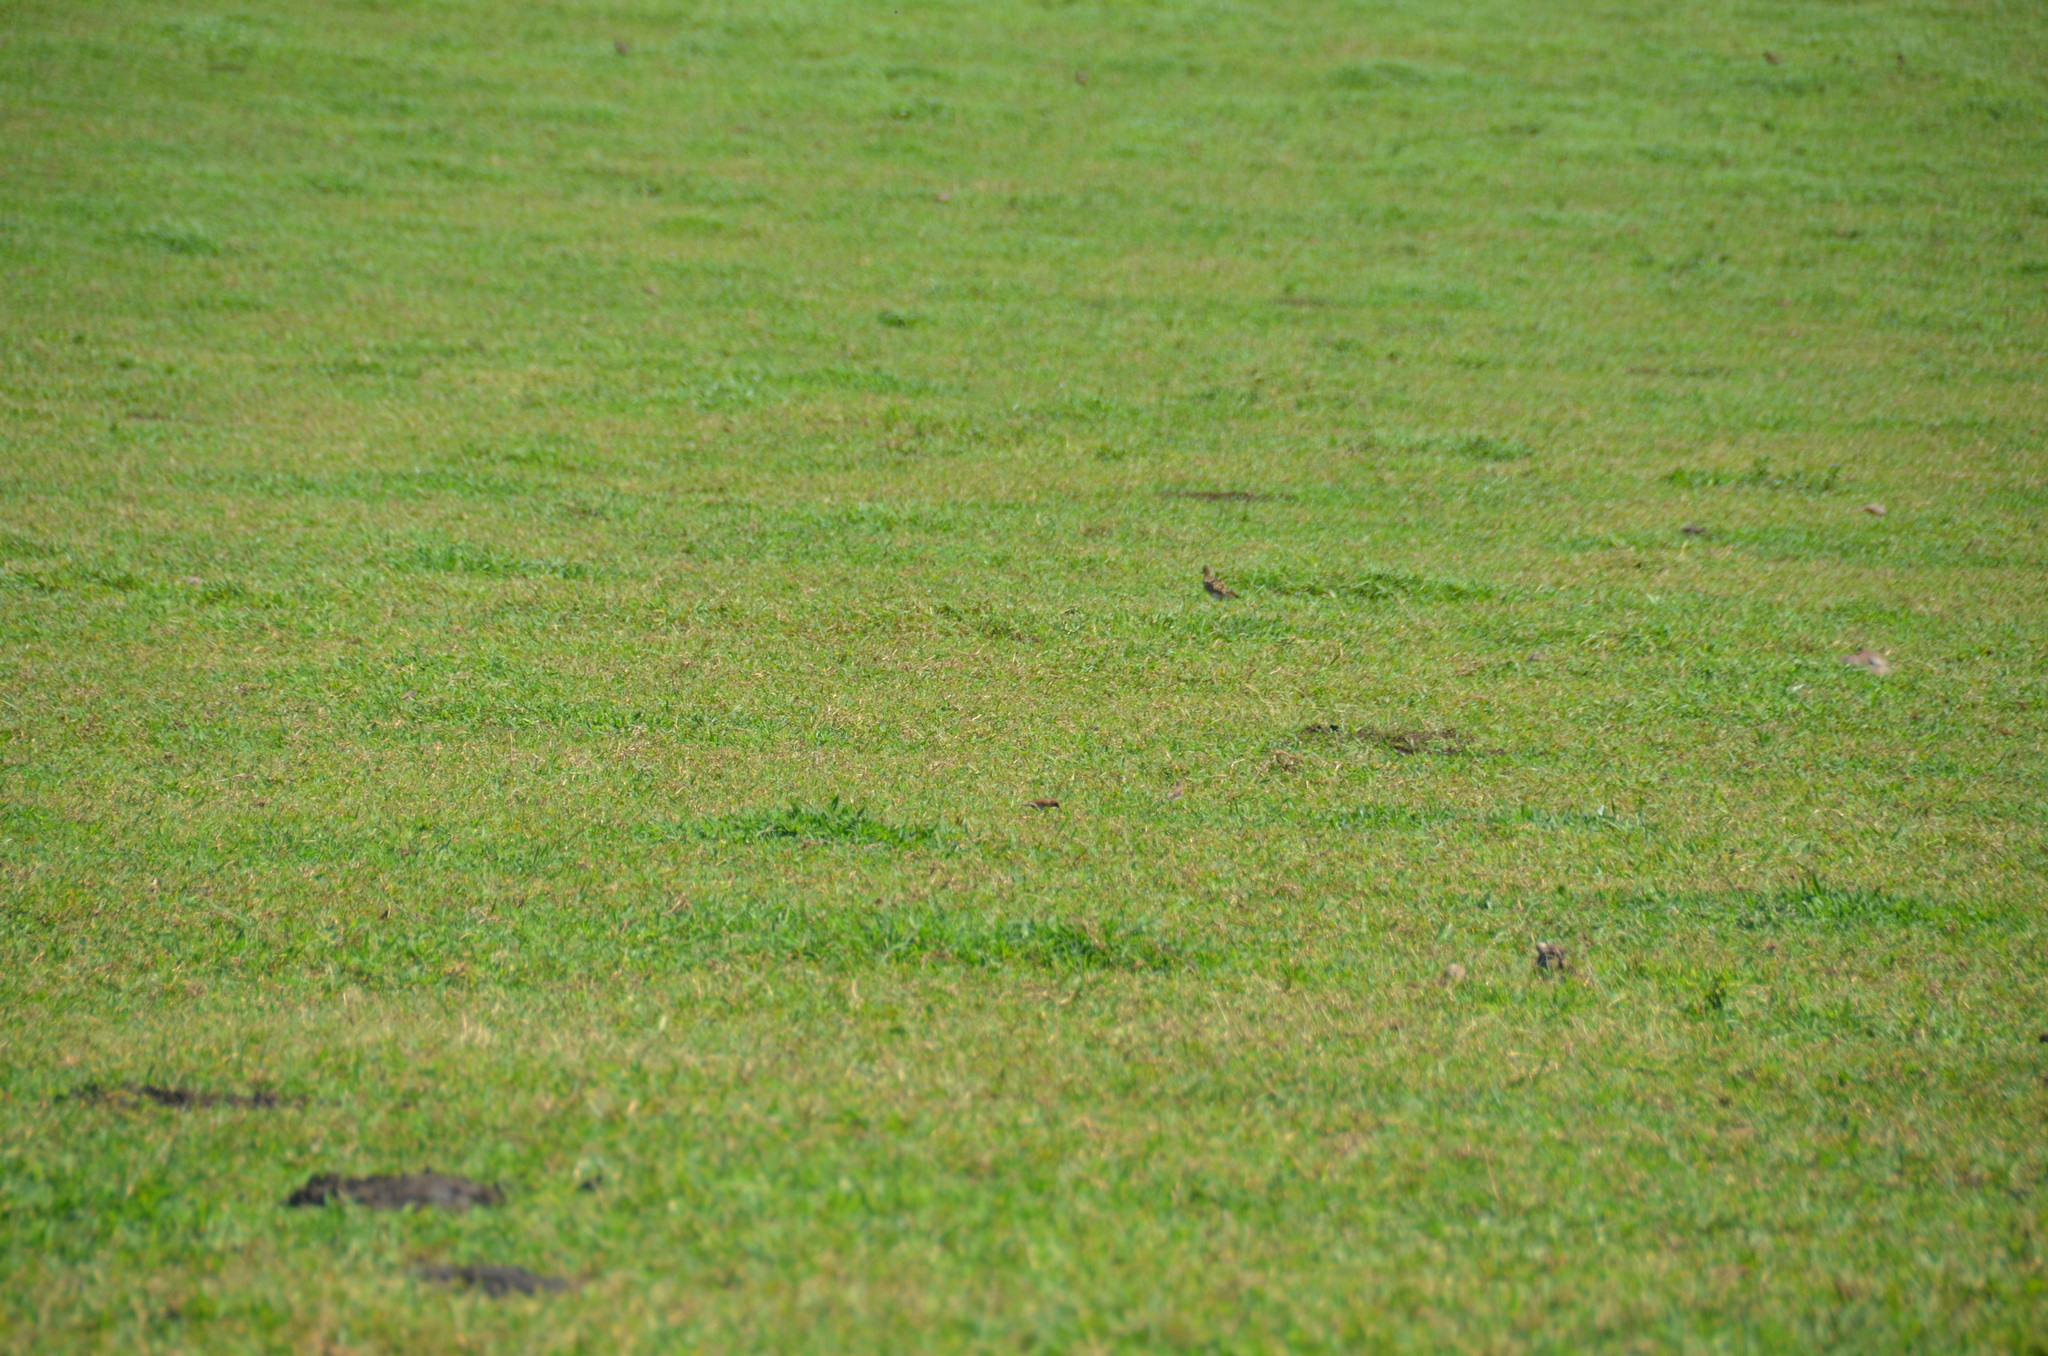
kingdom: Animalia
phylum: Chordata
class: Aves
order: Charadriiformes
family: Charadriidae
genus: Pluvialis
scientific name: Pluvialis fulva
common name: Pacific golden plover
